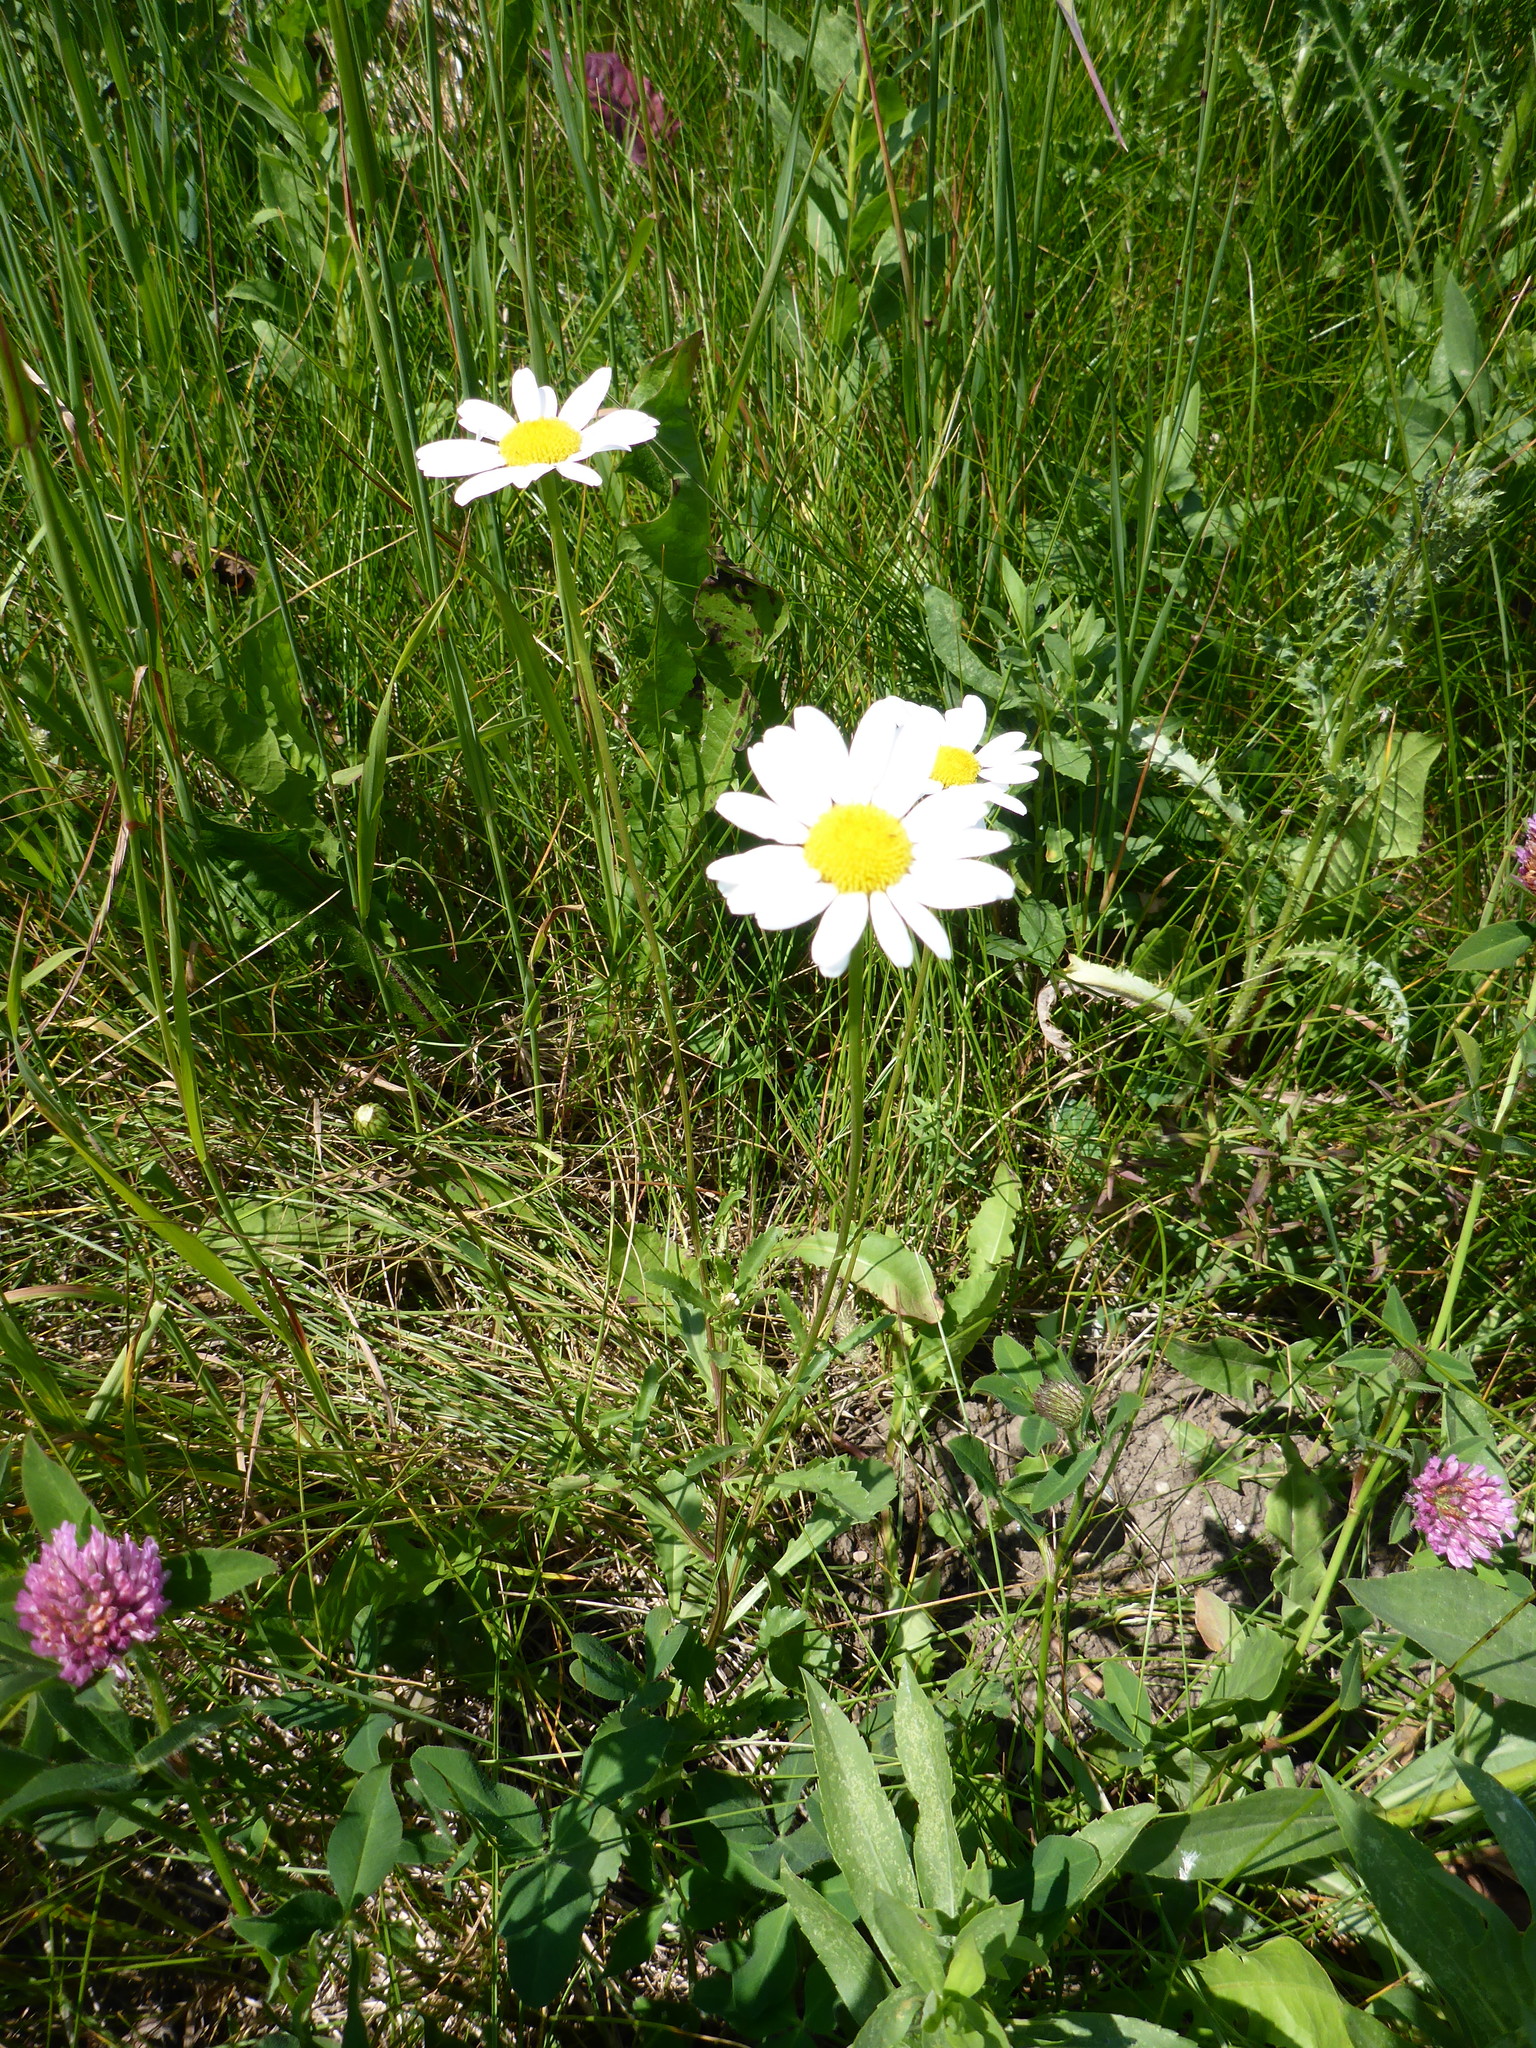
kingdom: Plantae
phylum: Tracheophyta
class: Magnoliopsida
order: Asterales
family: Asteraceae
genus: Leucanthemum
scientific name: Leucanthemum vulgare
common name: Oxeye daisy
